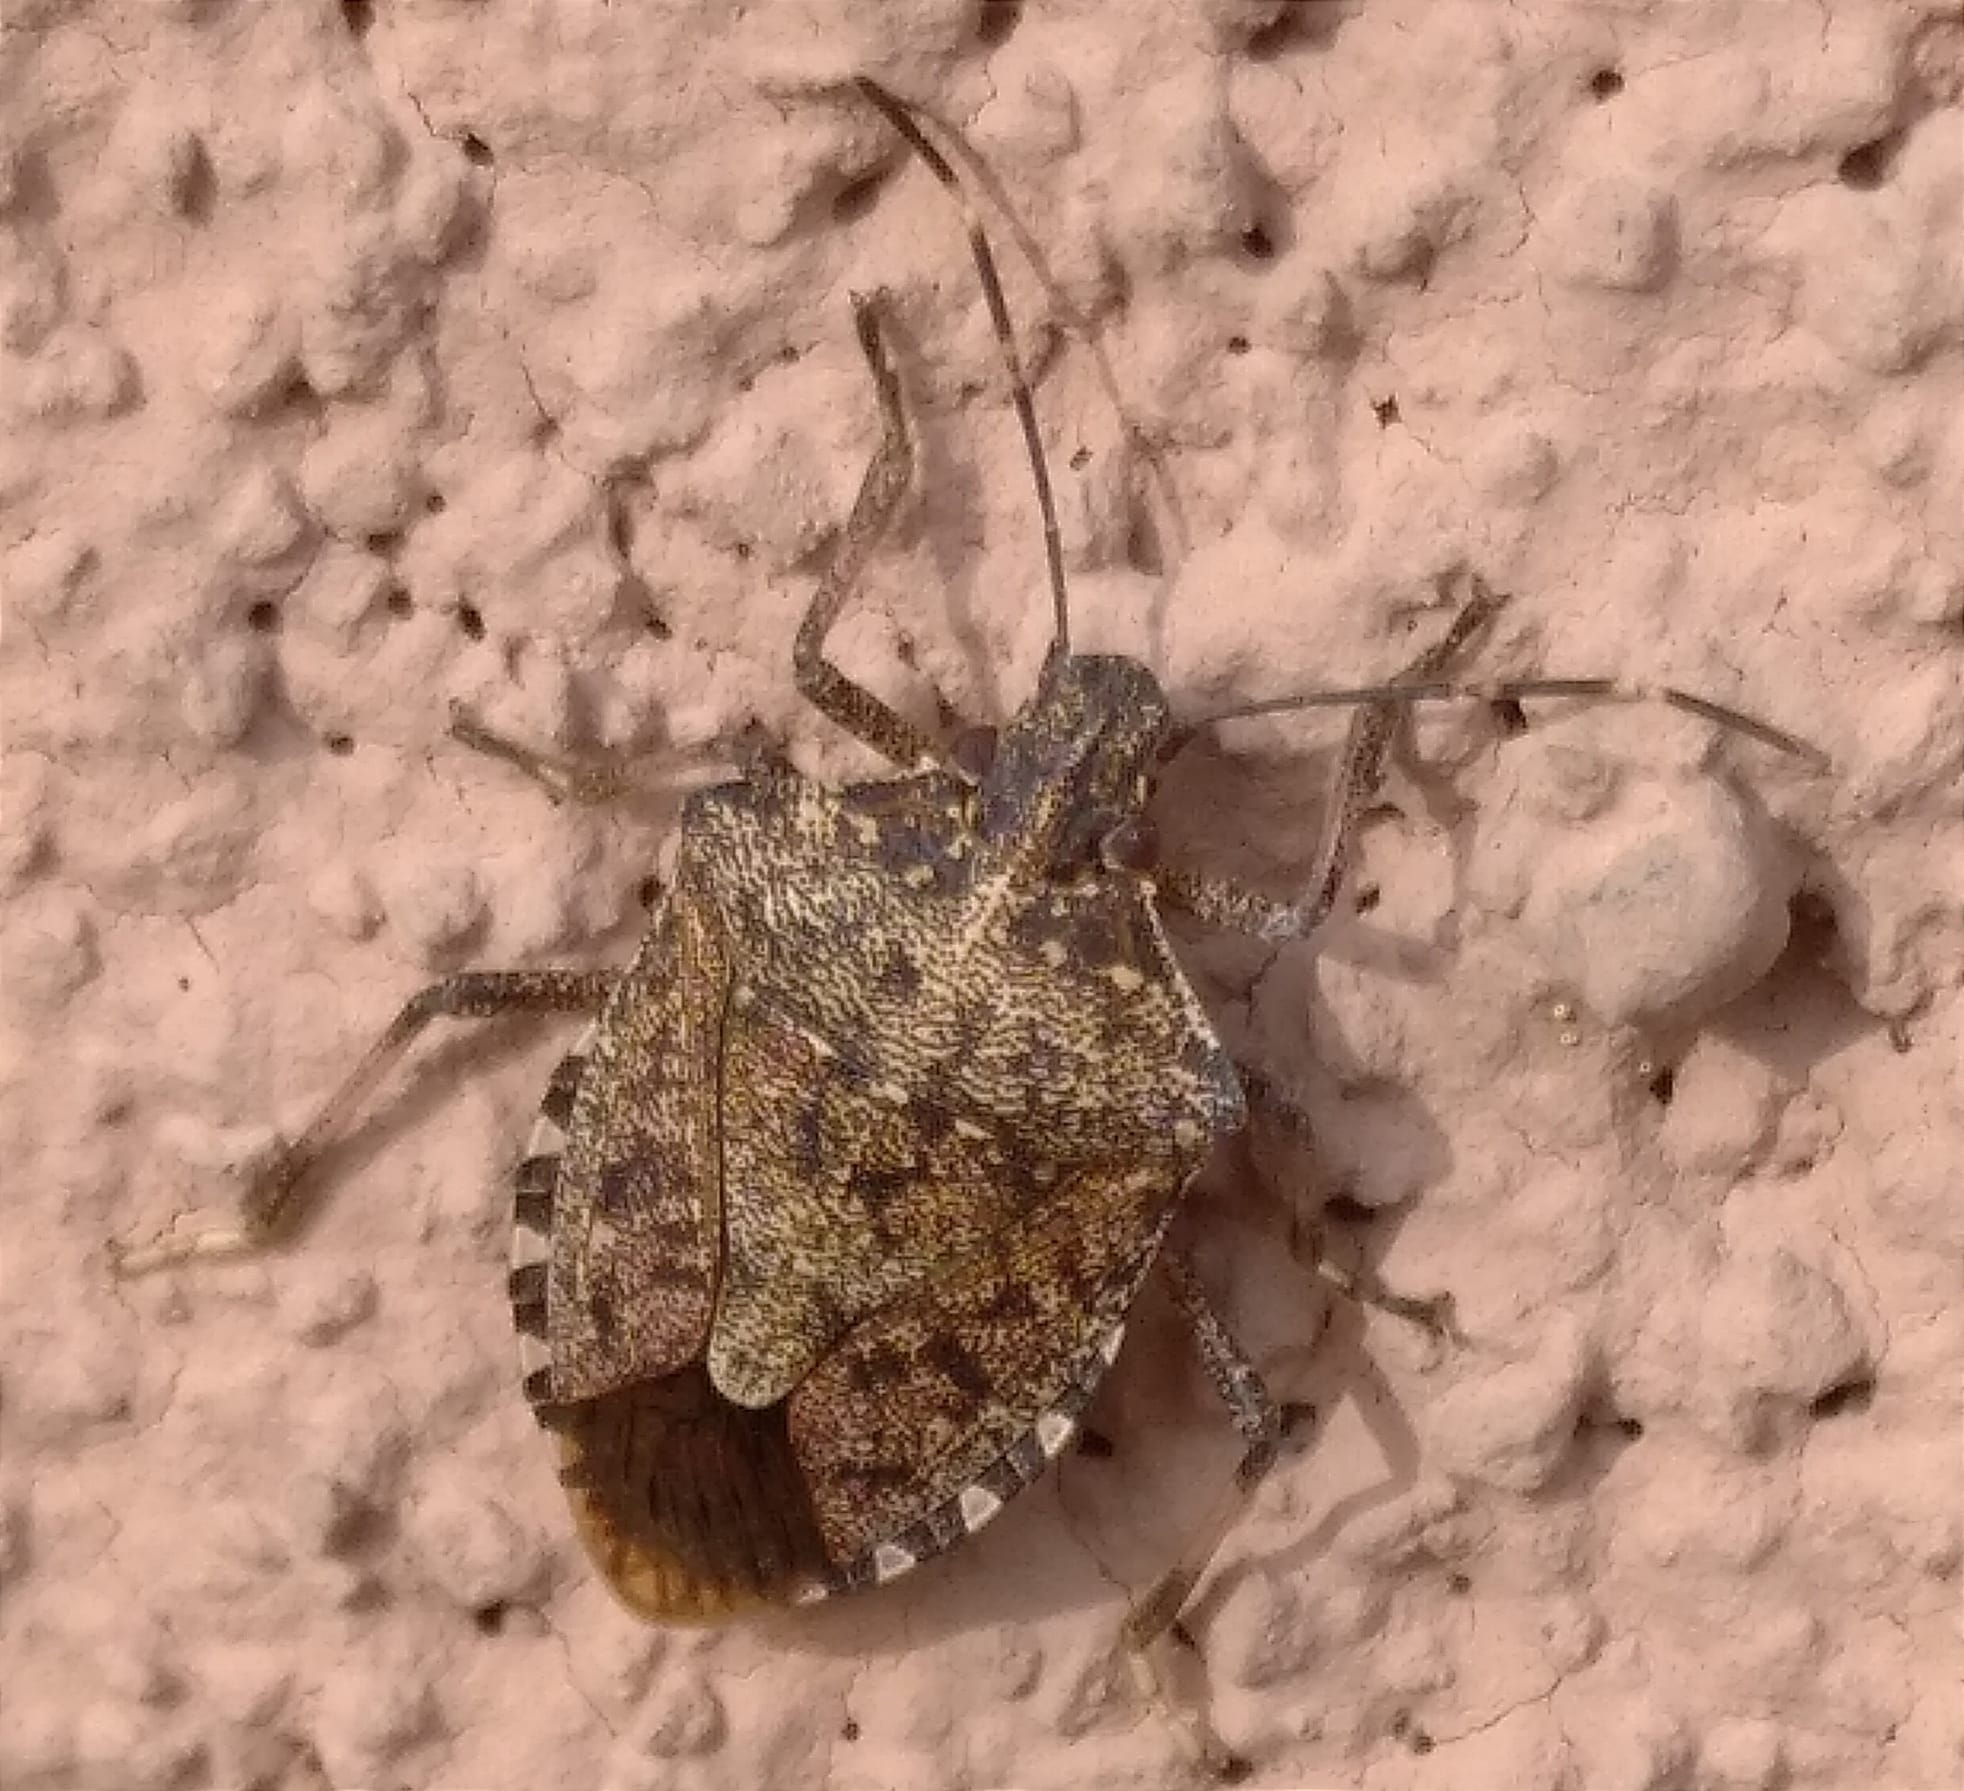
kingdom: Animalia
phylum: Arthropoda
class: Insecta
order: Hemiptera
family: Pentatomidae
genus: Halyomorpha
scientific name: Halyomorpha halys
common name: Brown marmorated stink bug
